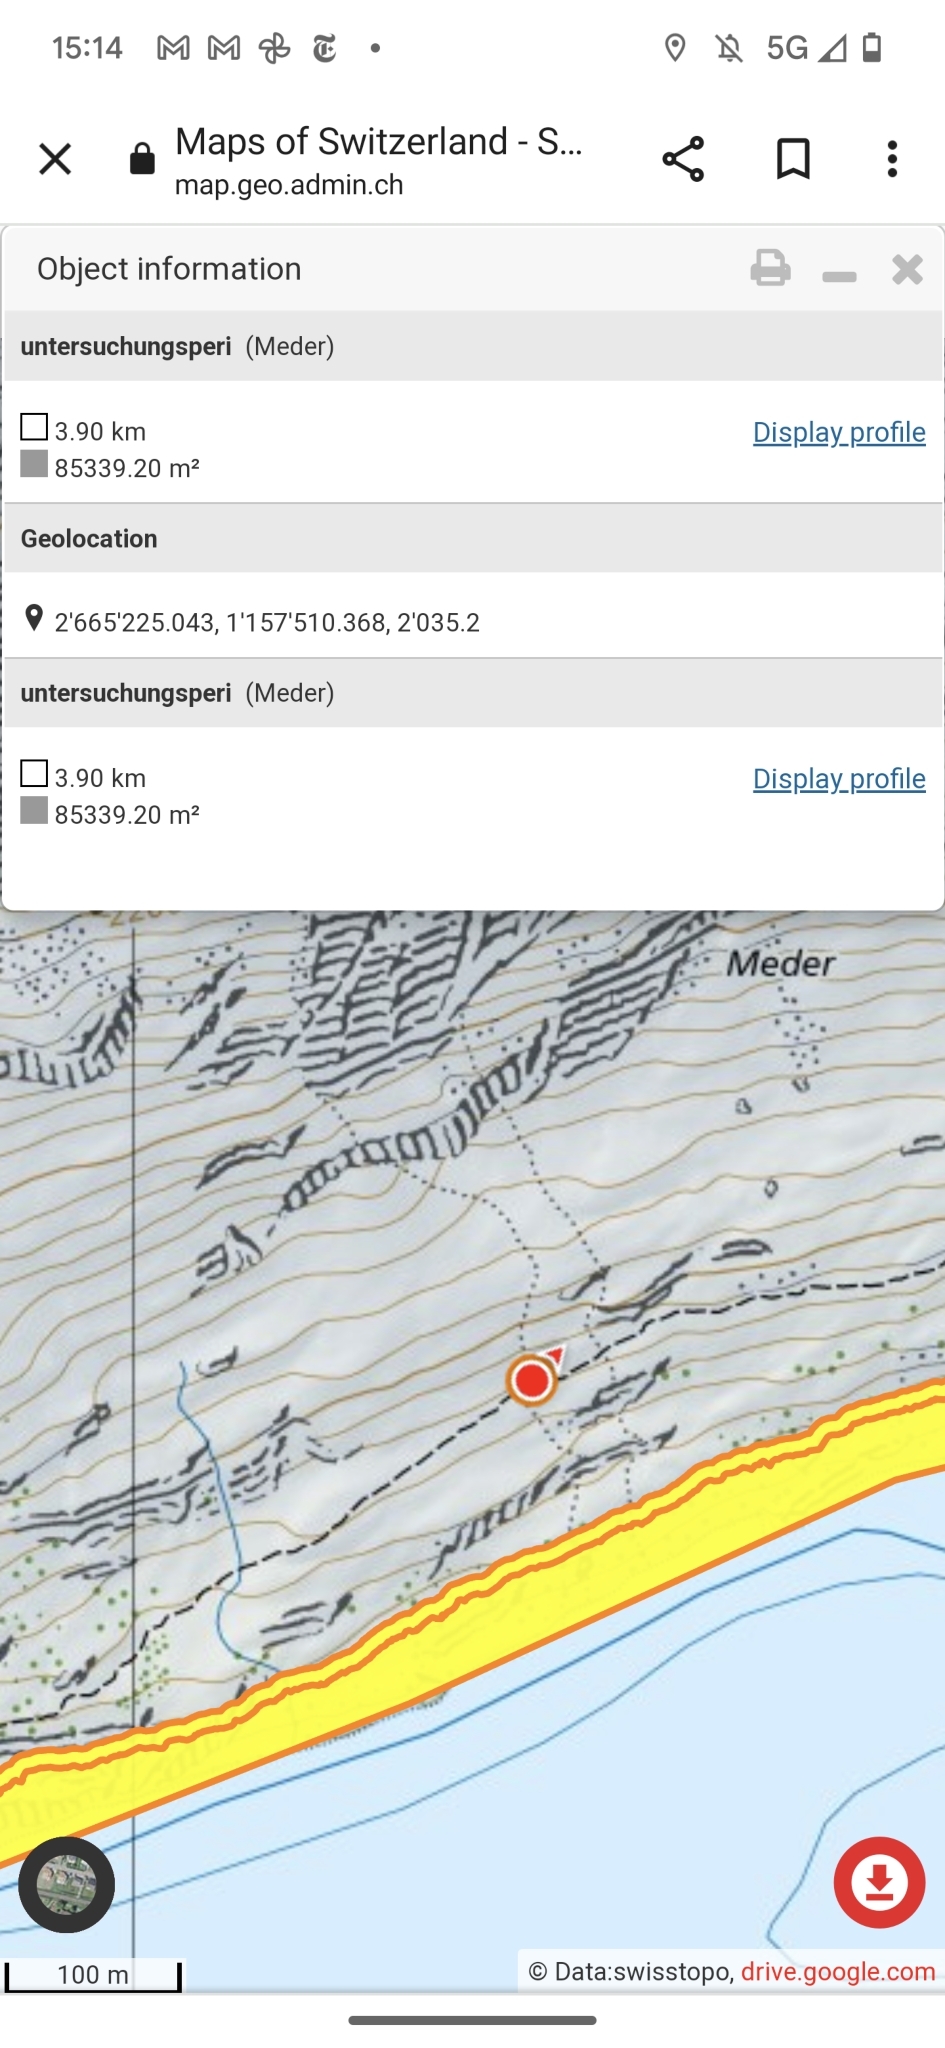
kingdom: Animalia
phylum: Arthropoda
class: Insecta
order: Hymenoptera
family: Formicidae
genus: Formica
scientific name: Formica
